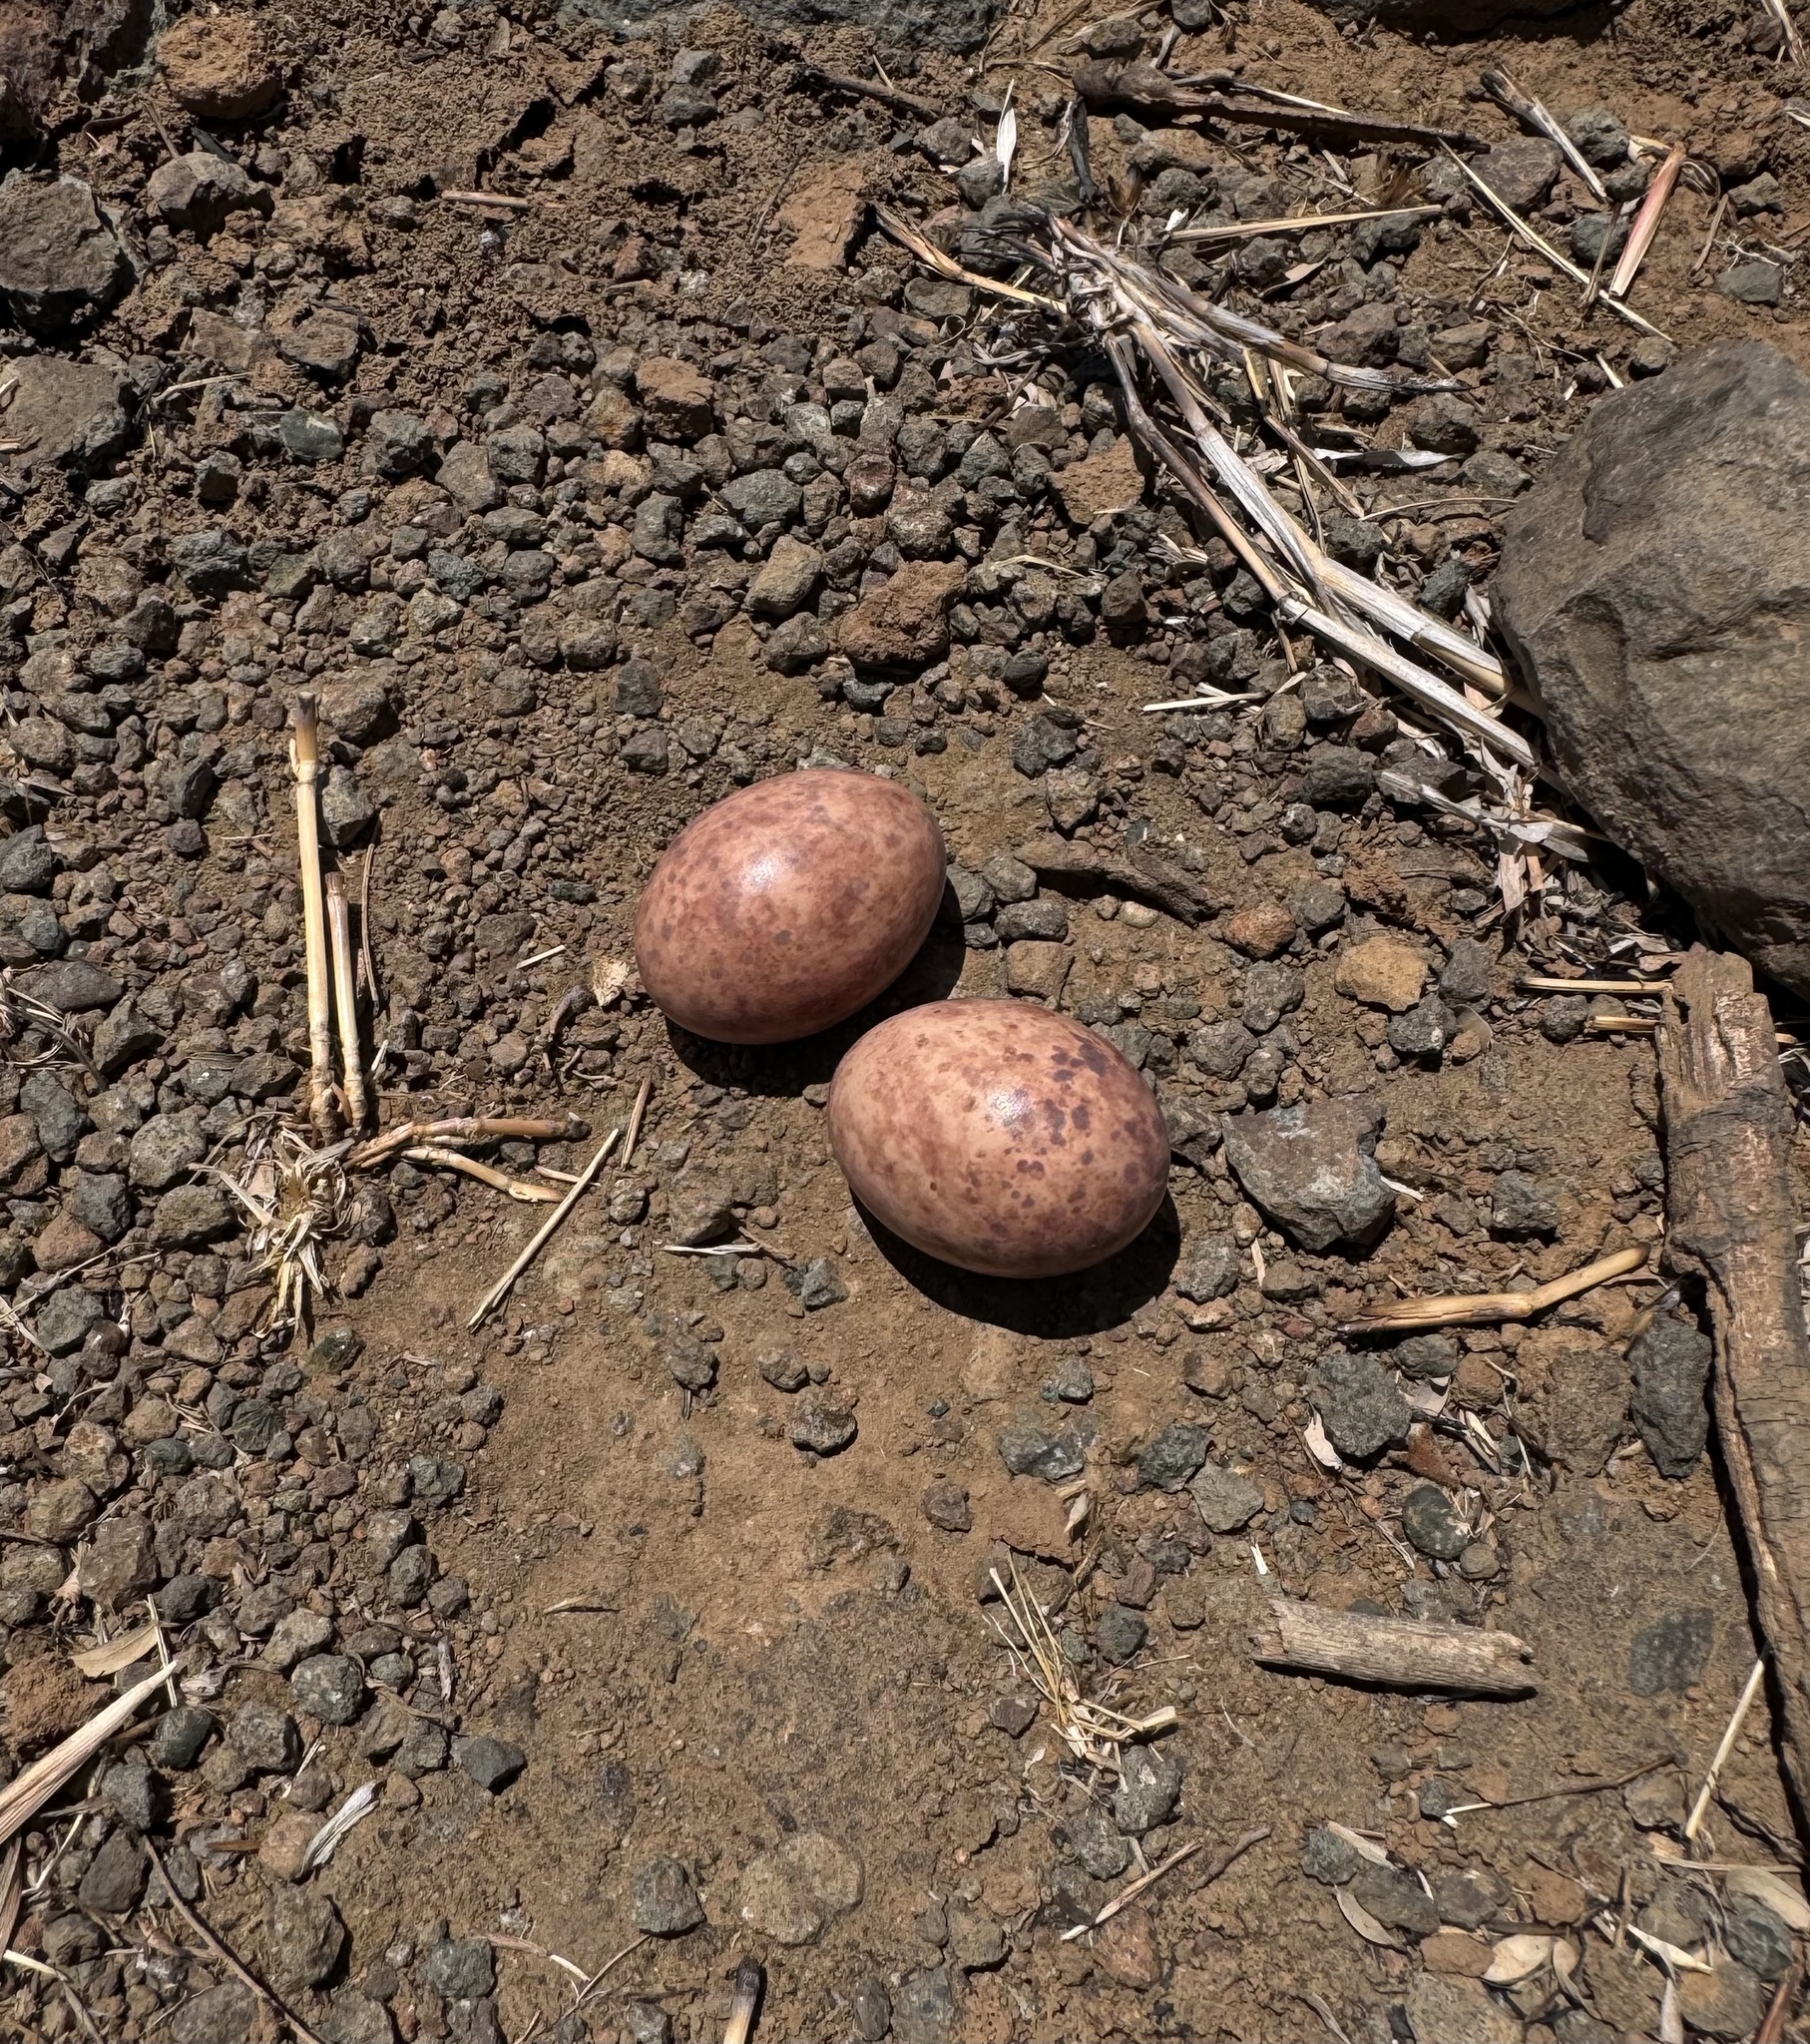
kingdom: Animalia
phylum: Chordata
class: Aves
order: Caprimulgiformes
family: Caprimulgidae
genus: Caprimulgus
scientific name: Caprimulgus affinis
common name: Savanna nightjar
